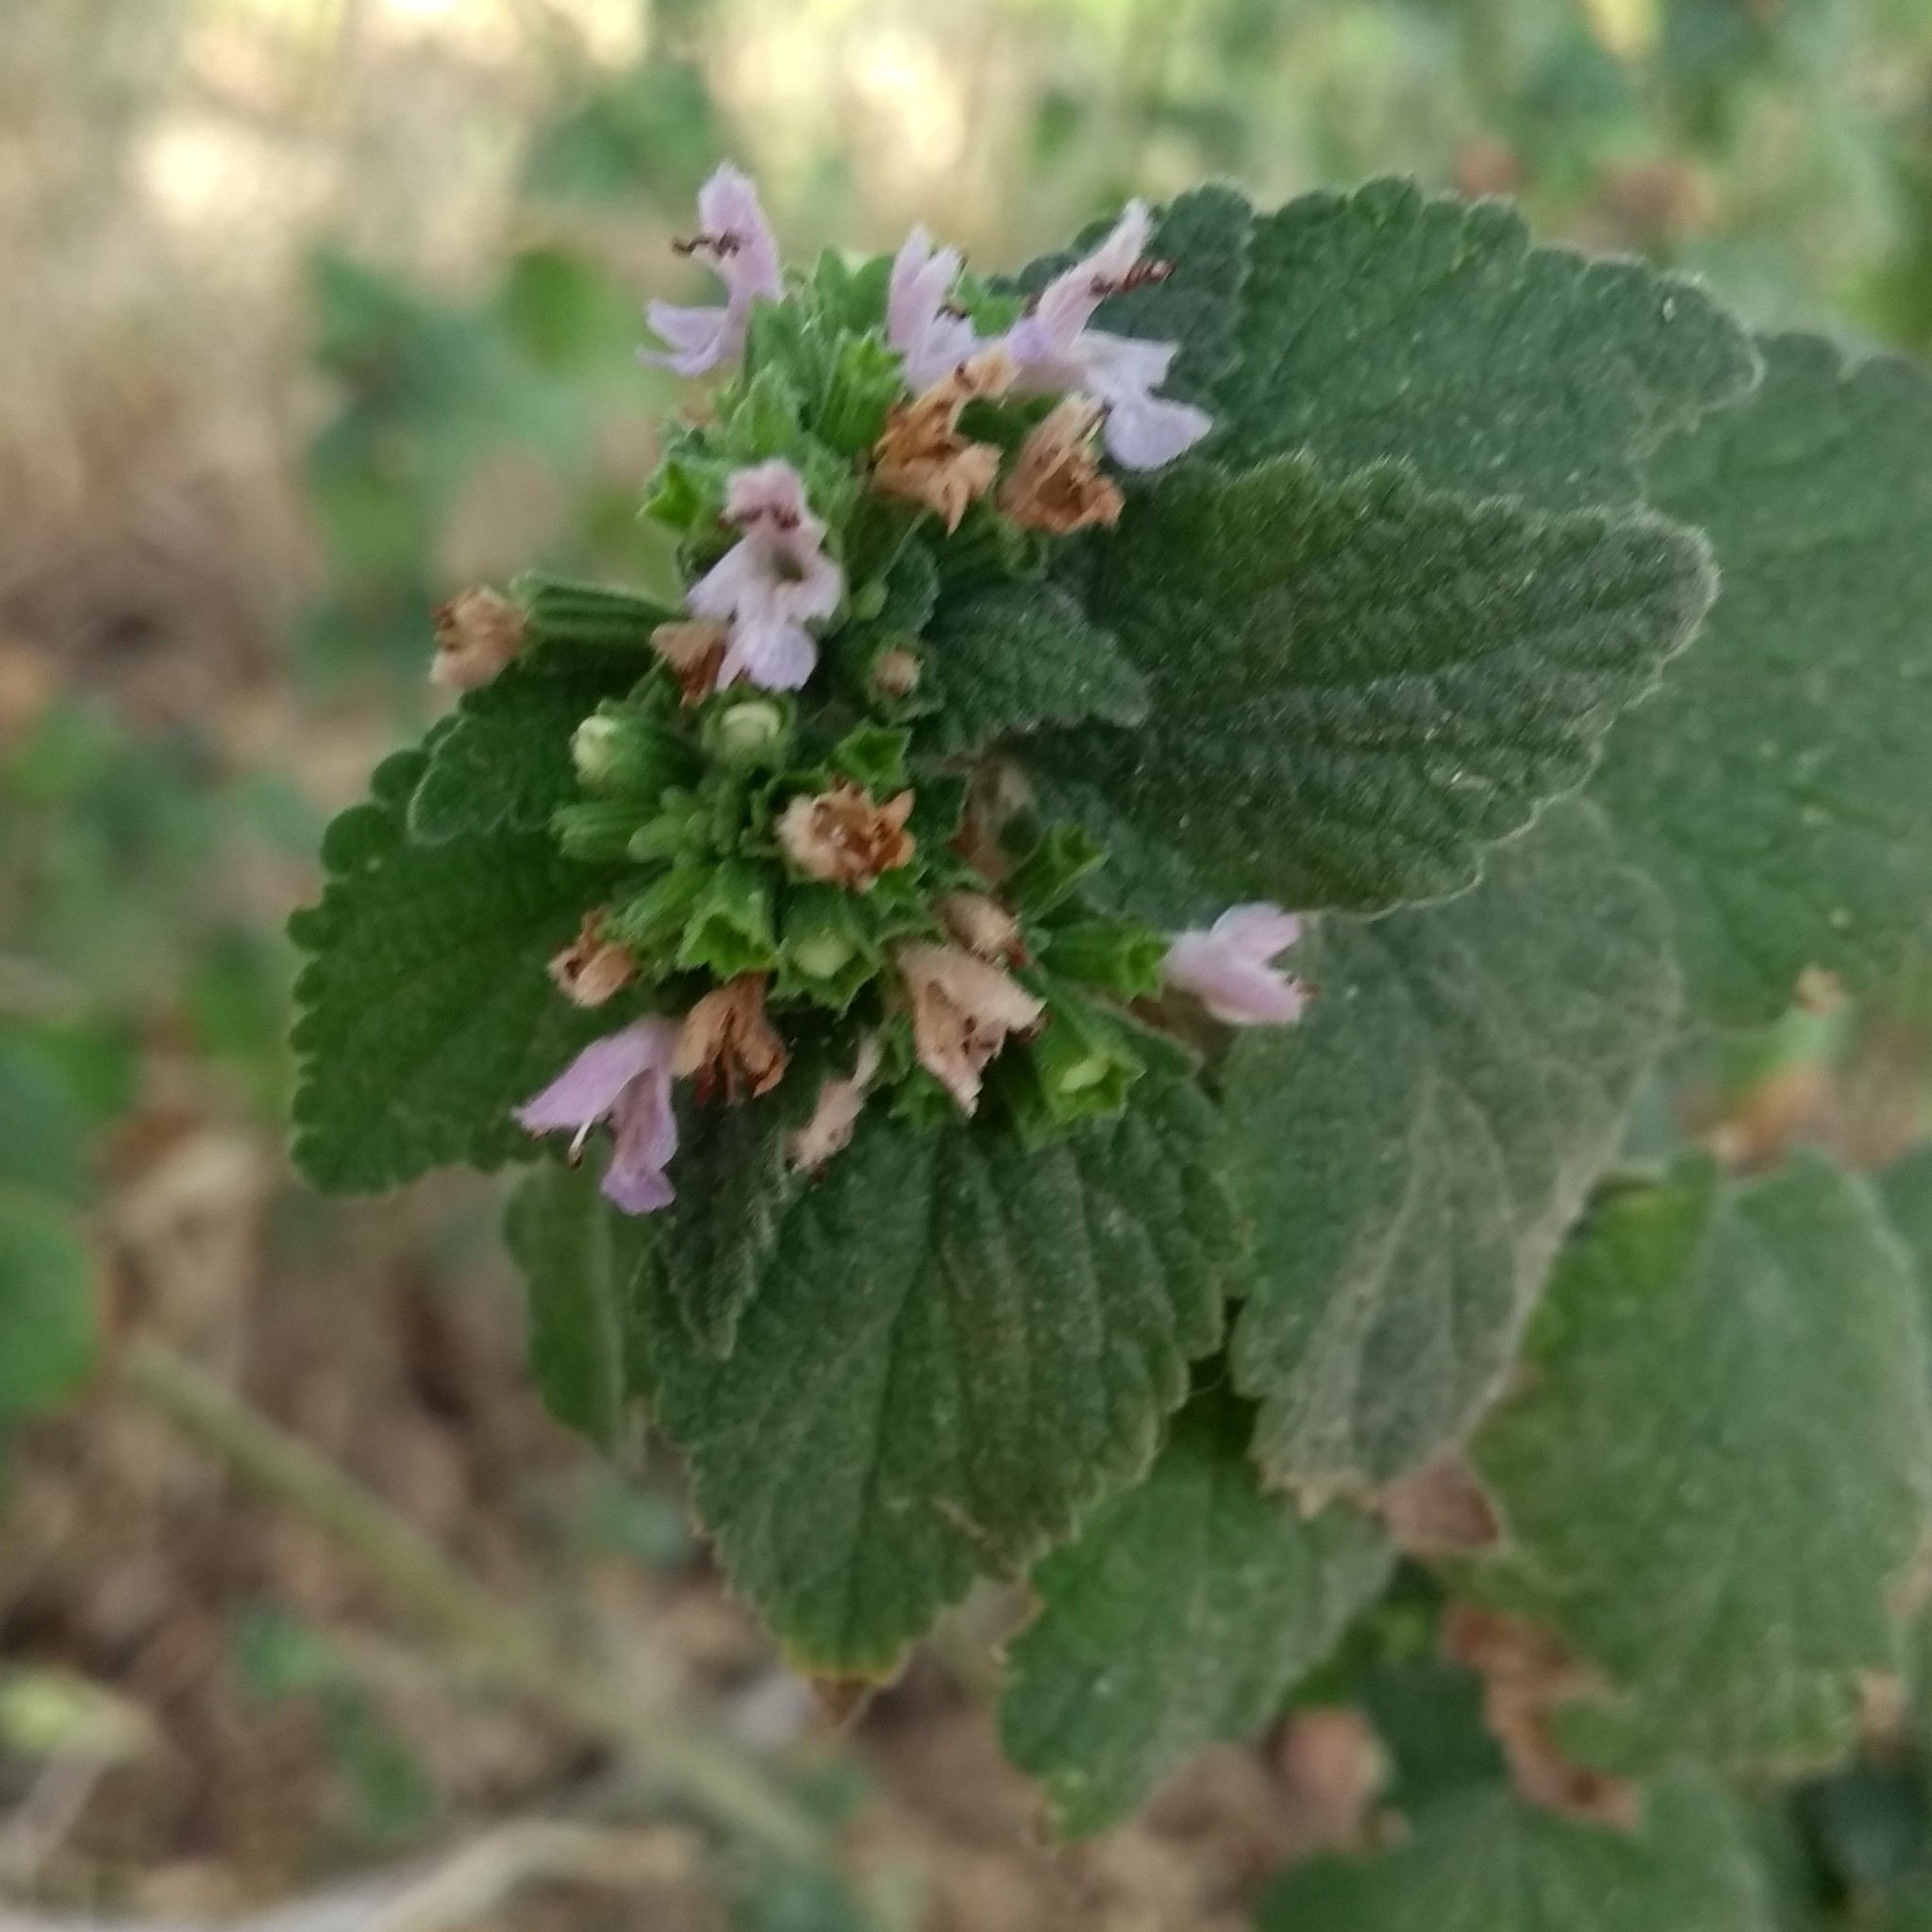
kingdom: Plantae
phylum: Tracheophyta
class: Magnoliopsida
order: Lamiales
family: Lamiaceae
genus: Ballota
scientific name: Ballota nigra
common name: Black horehound
